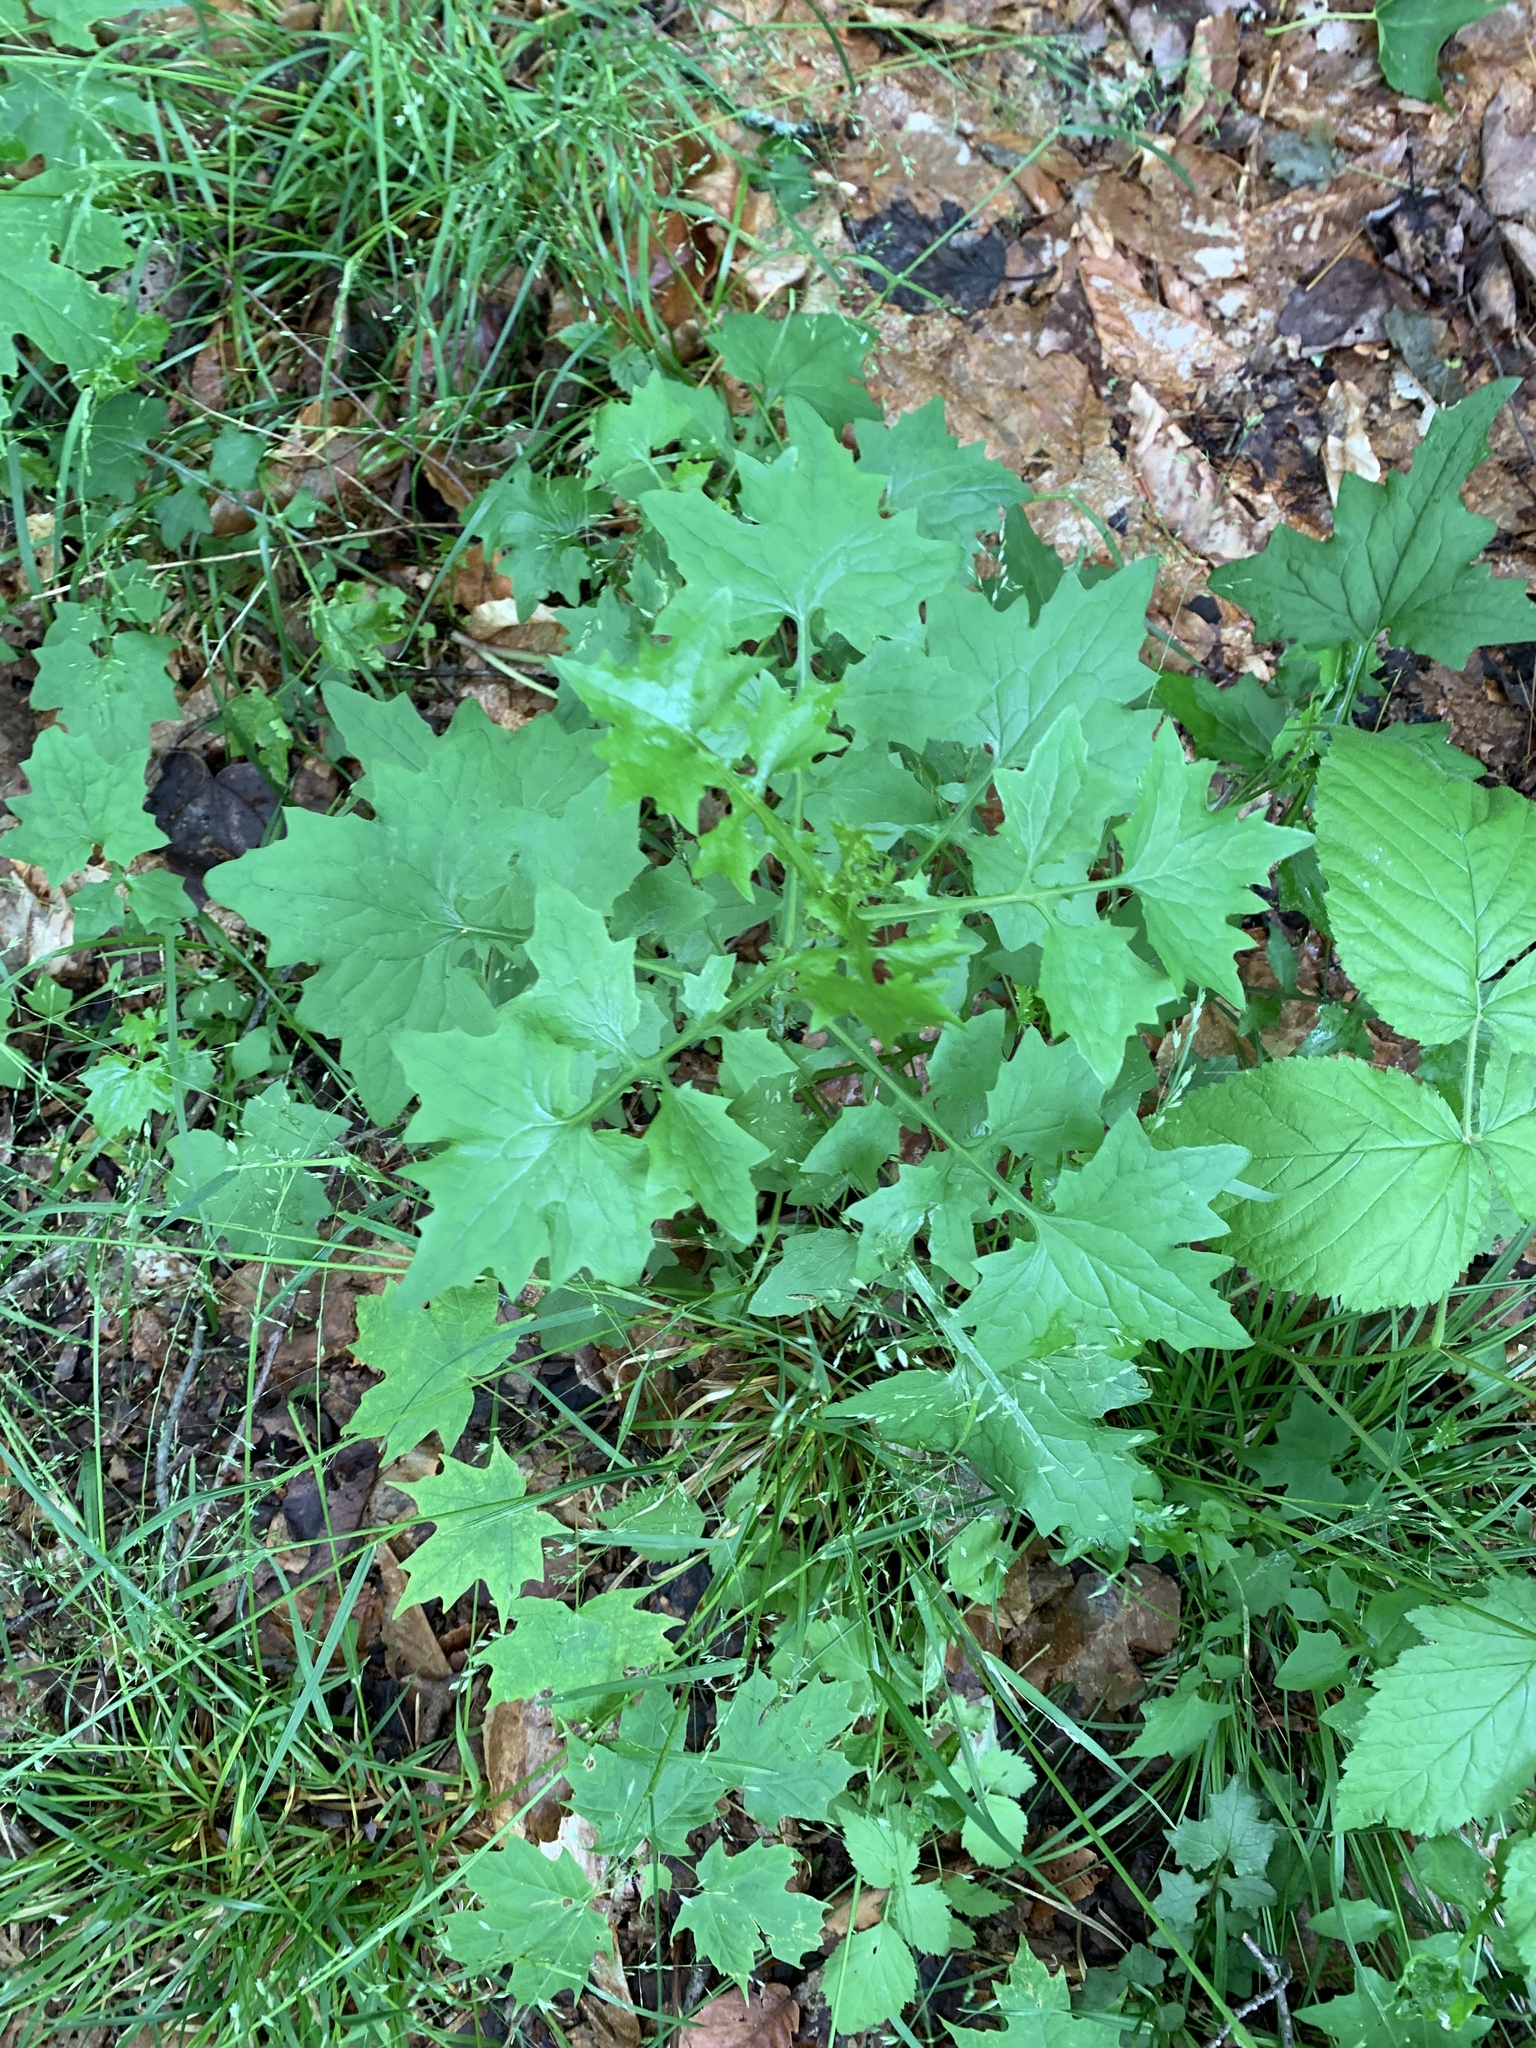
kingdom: Plantae
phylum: Tracheophyta
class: Magnoliopsida
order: Asterales
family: Asteraceae
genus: Mycelis
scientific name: Mycelis muralis
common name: Wall lettuce
